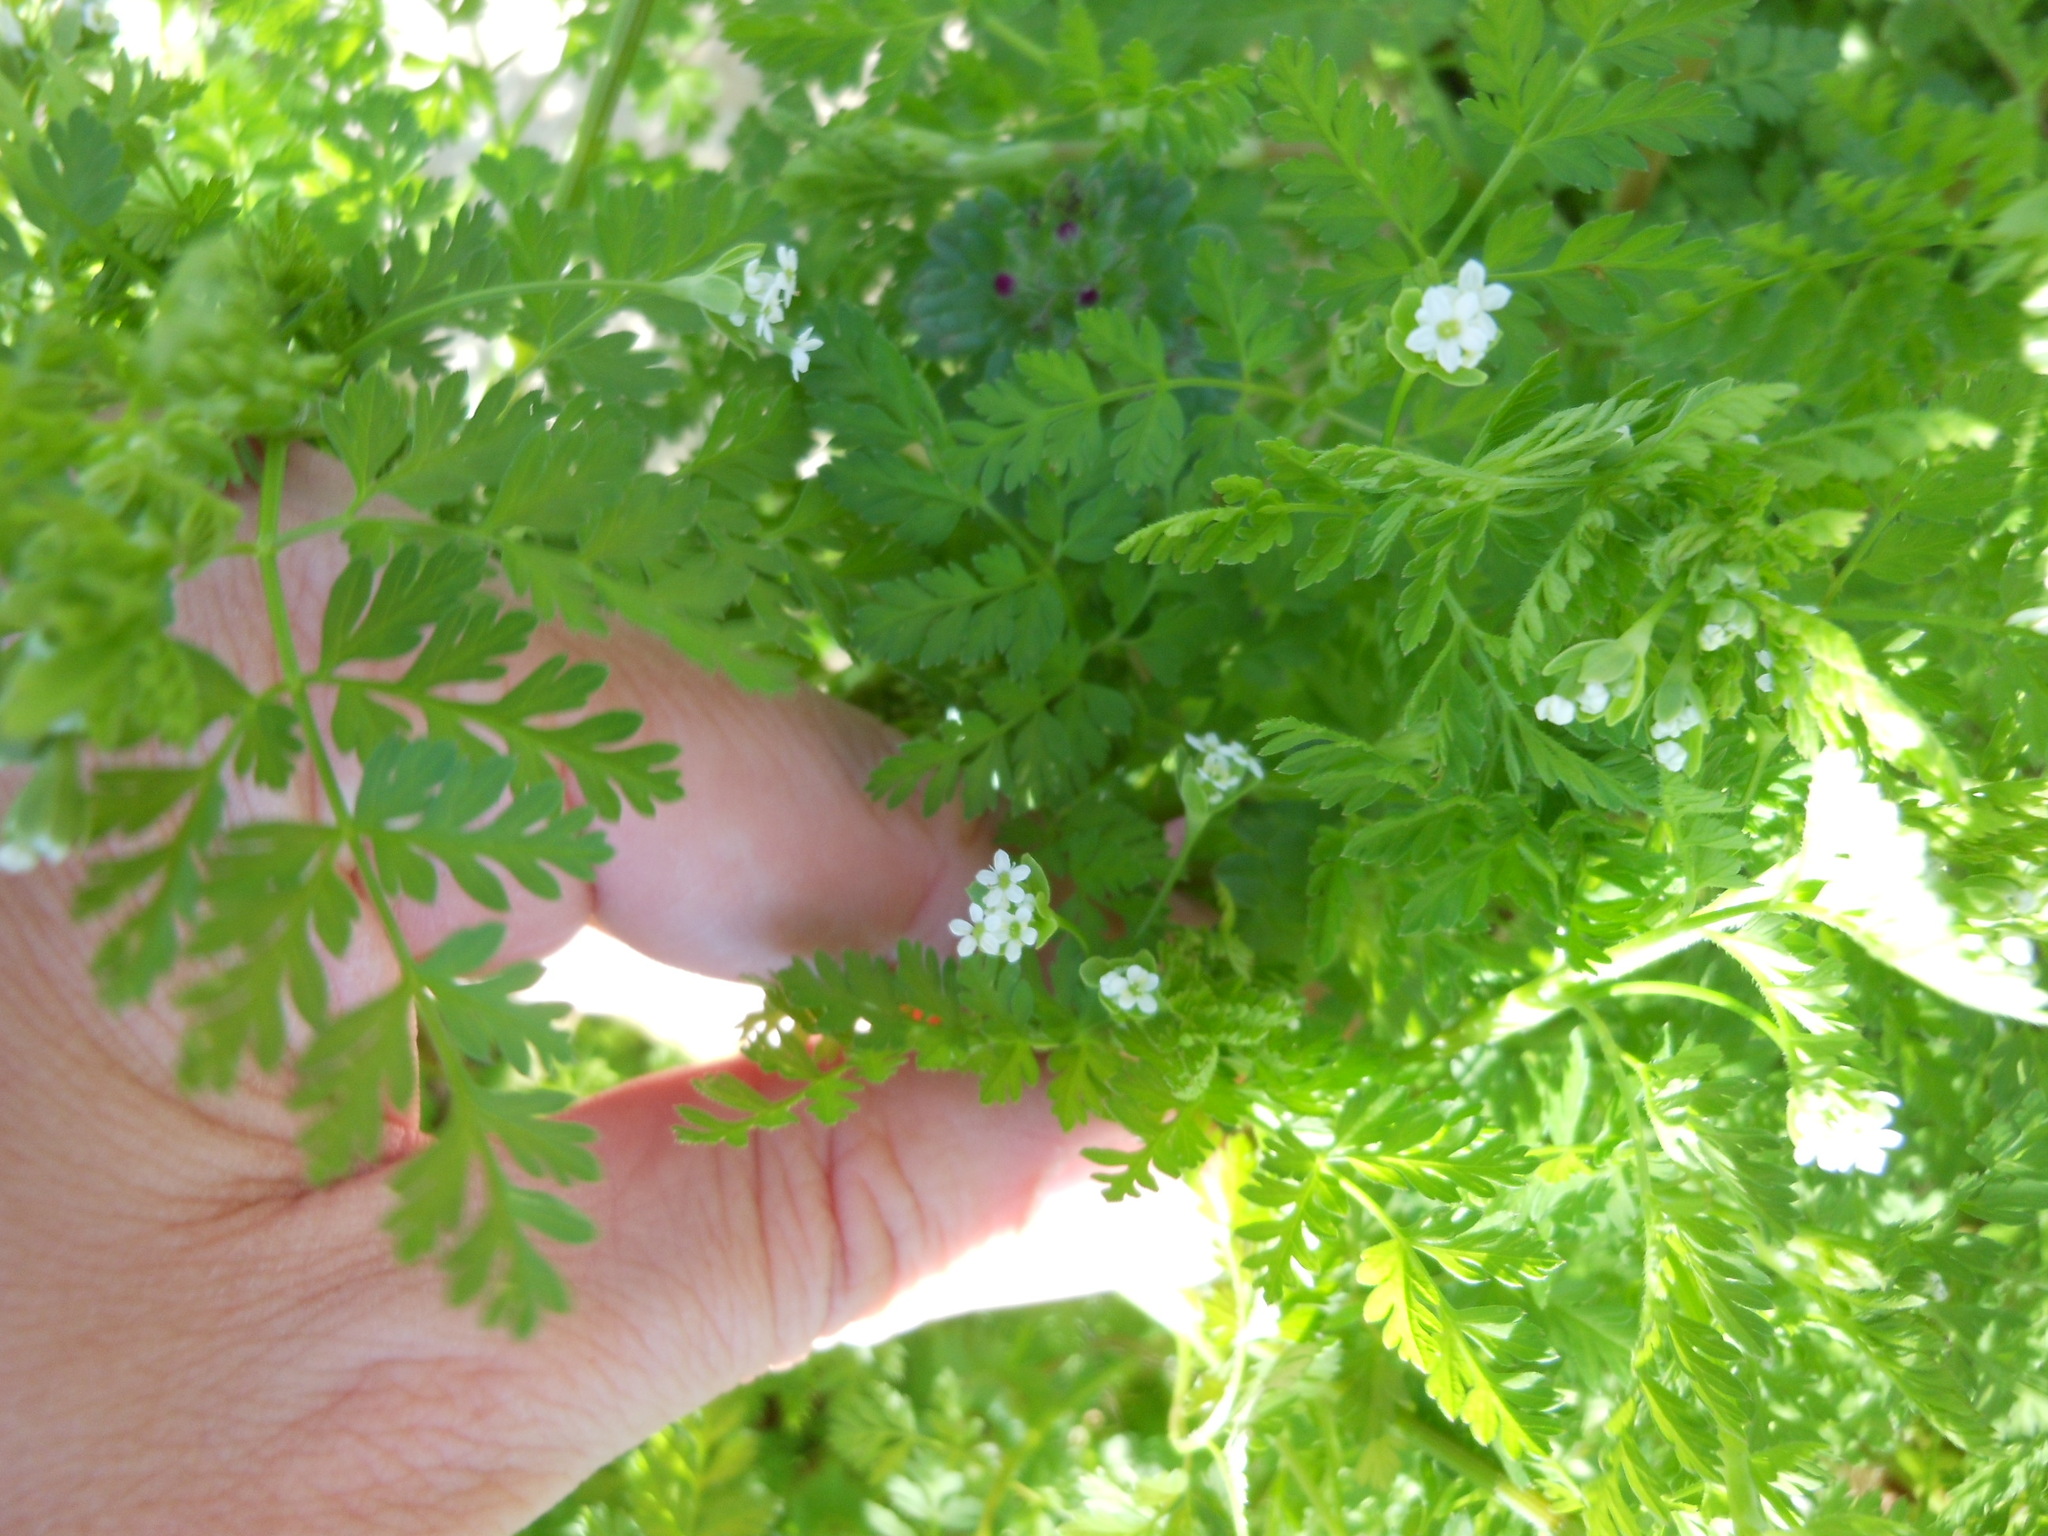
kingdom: Plantae
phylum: Tracheophyta
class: Magnoliopsida
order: Apiales
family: Apiaceae
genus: Chaerophyllum
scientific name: Chaerophyllum tainturieri
